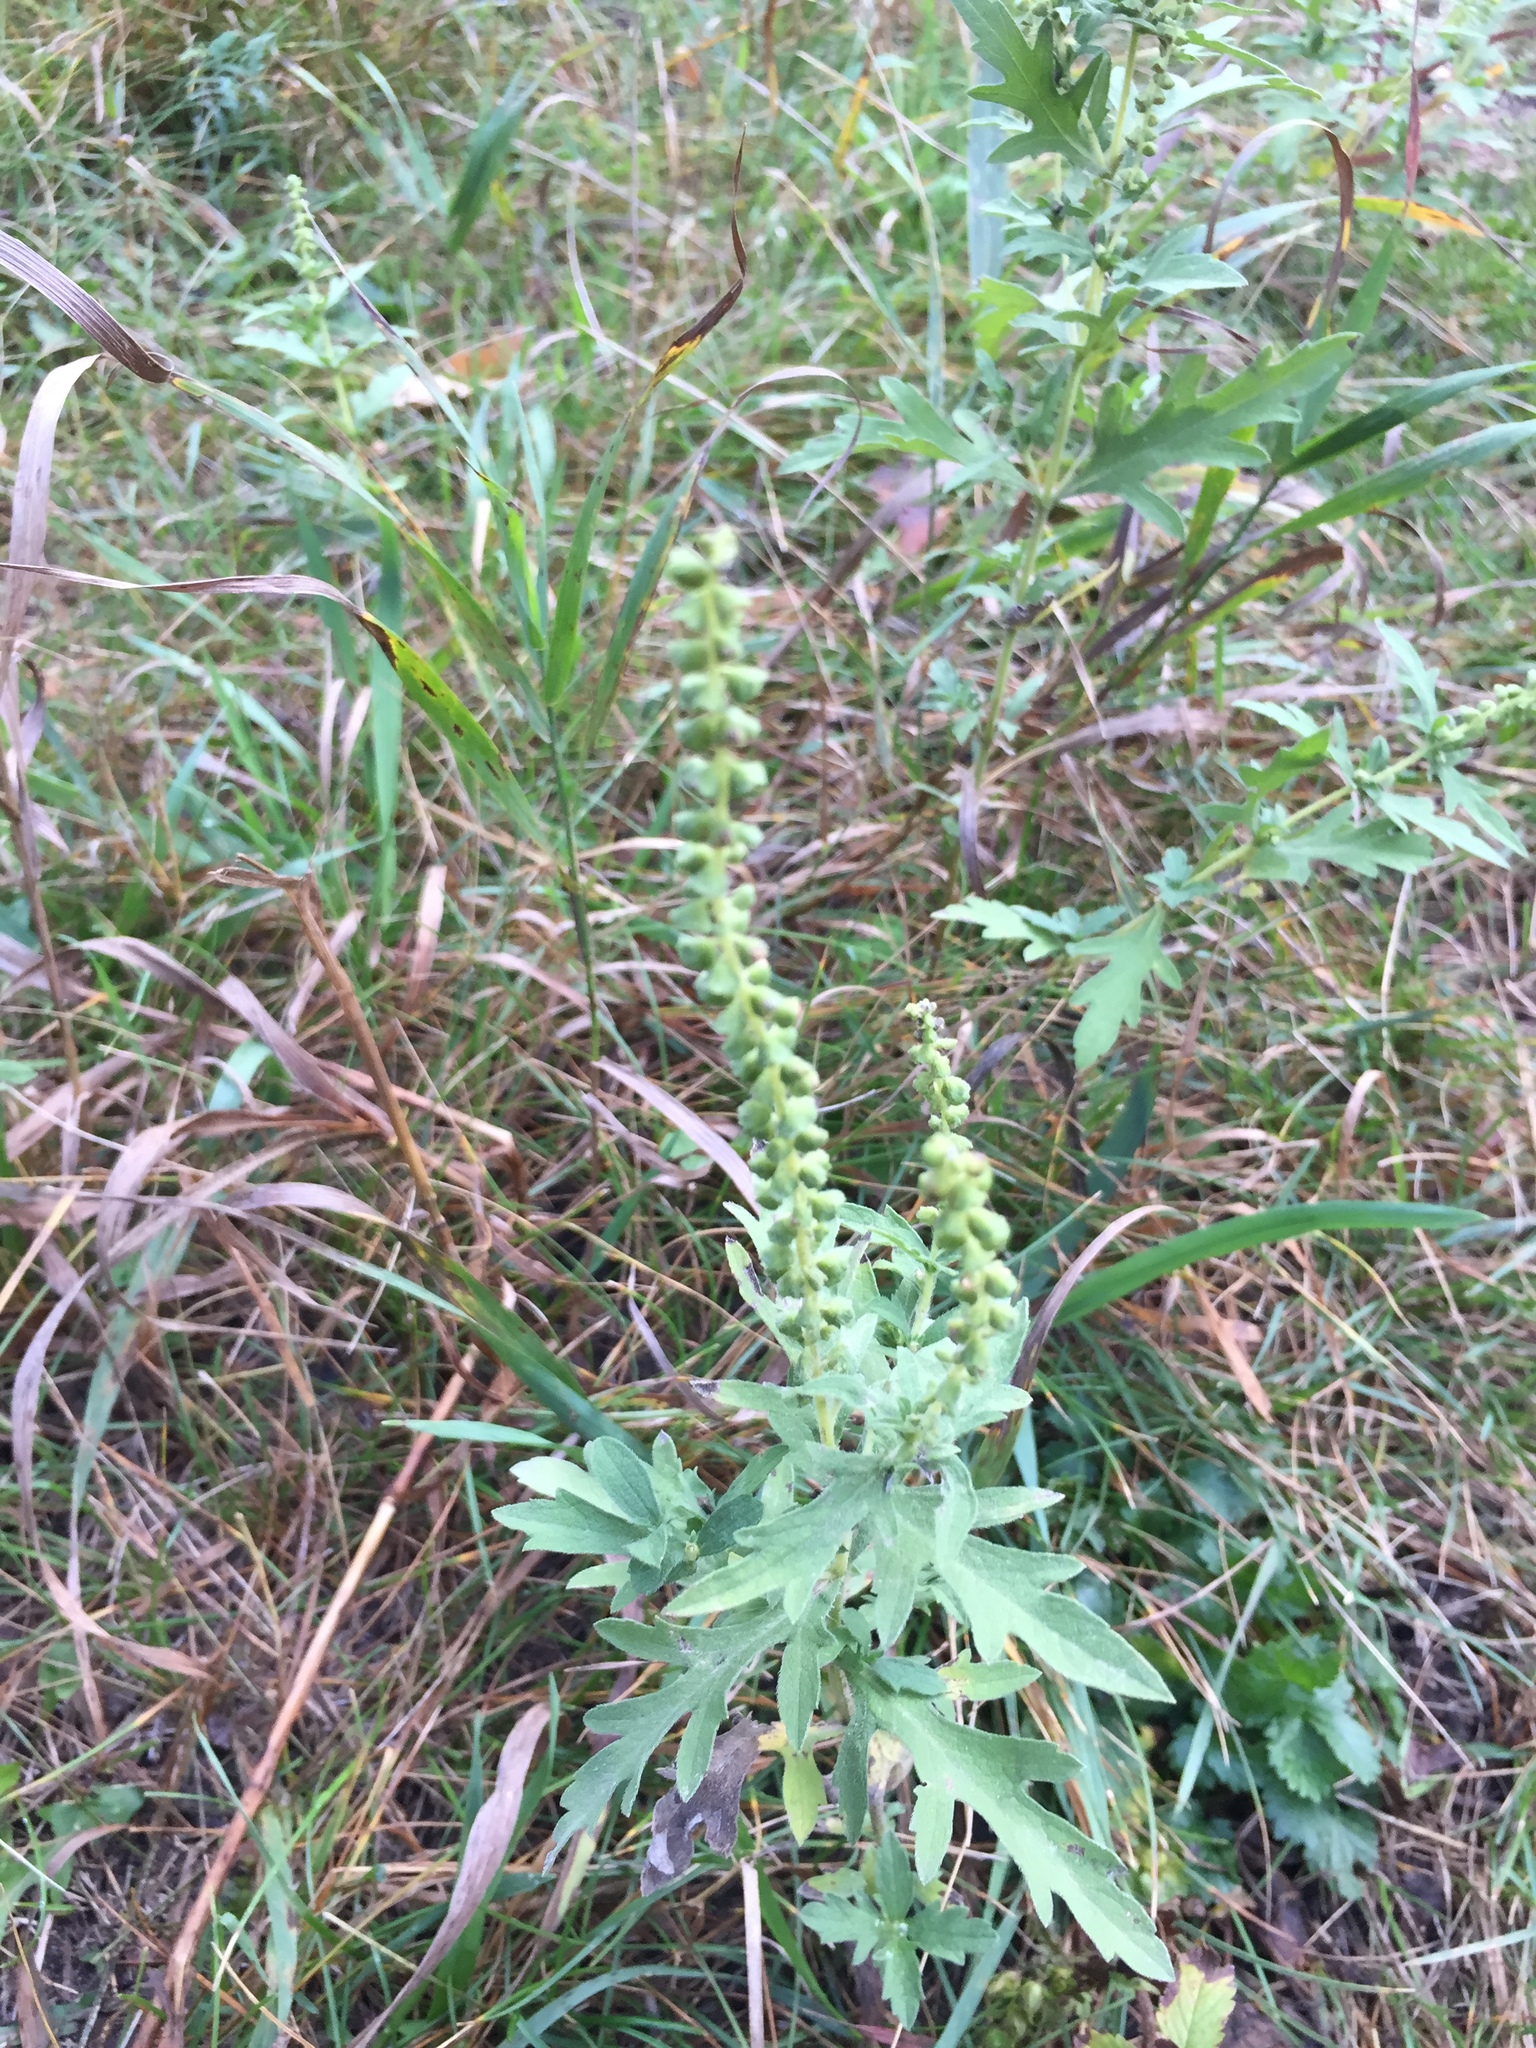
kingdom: Plantae
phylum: Tracheophyta
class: Magnoliopsida
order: Asterales
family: Asteraceae
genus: Ambrosia
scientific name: Ambrosia psilostachya
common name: Perennial ragweed
